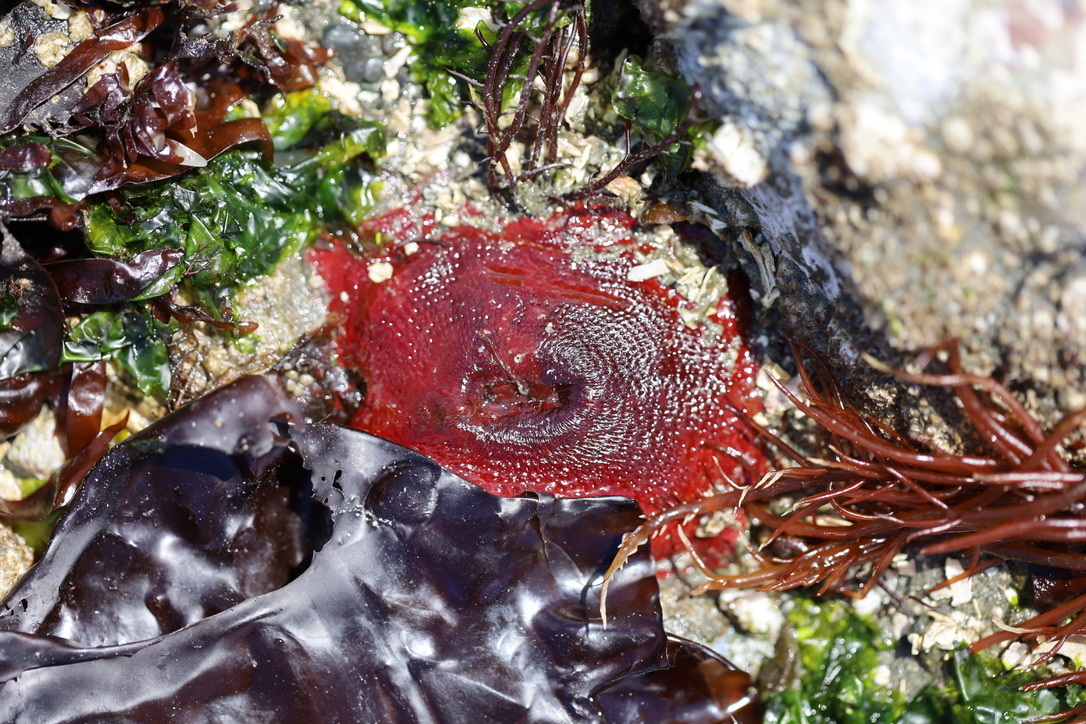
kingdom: Animalia
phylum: Cnidaria
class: Anthozoa
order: Actiniaria
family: Actiniidae
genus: Urticina
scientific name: Urticina grebelnyi
